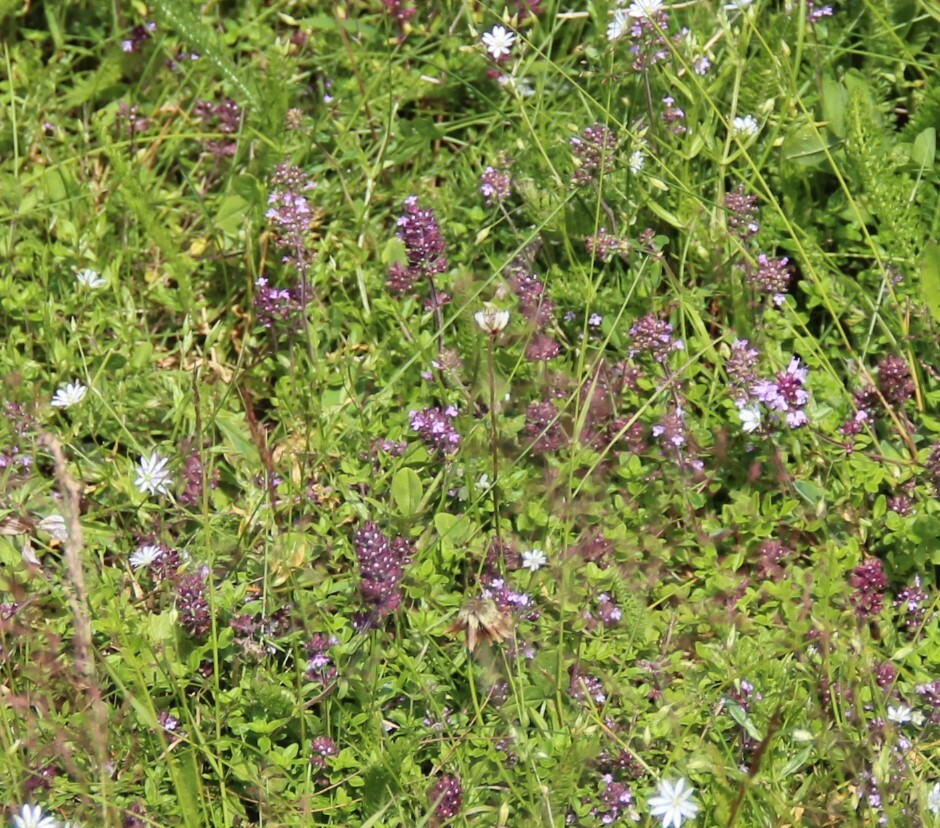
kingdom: Plantae
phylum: Tracheophyta
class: Magnoliopsida
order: Lamiales
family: Lamiaceae
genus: Thymus
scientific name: Thymus pulegioides
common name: Large thyme
